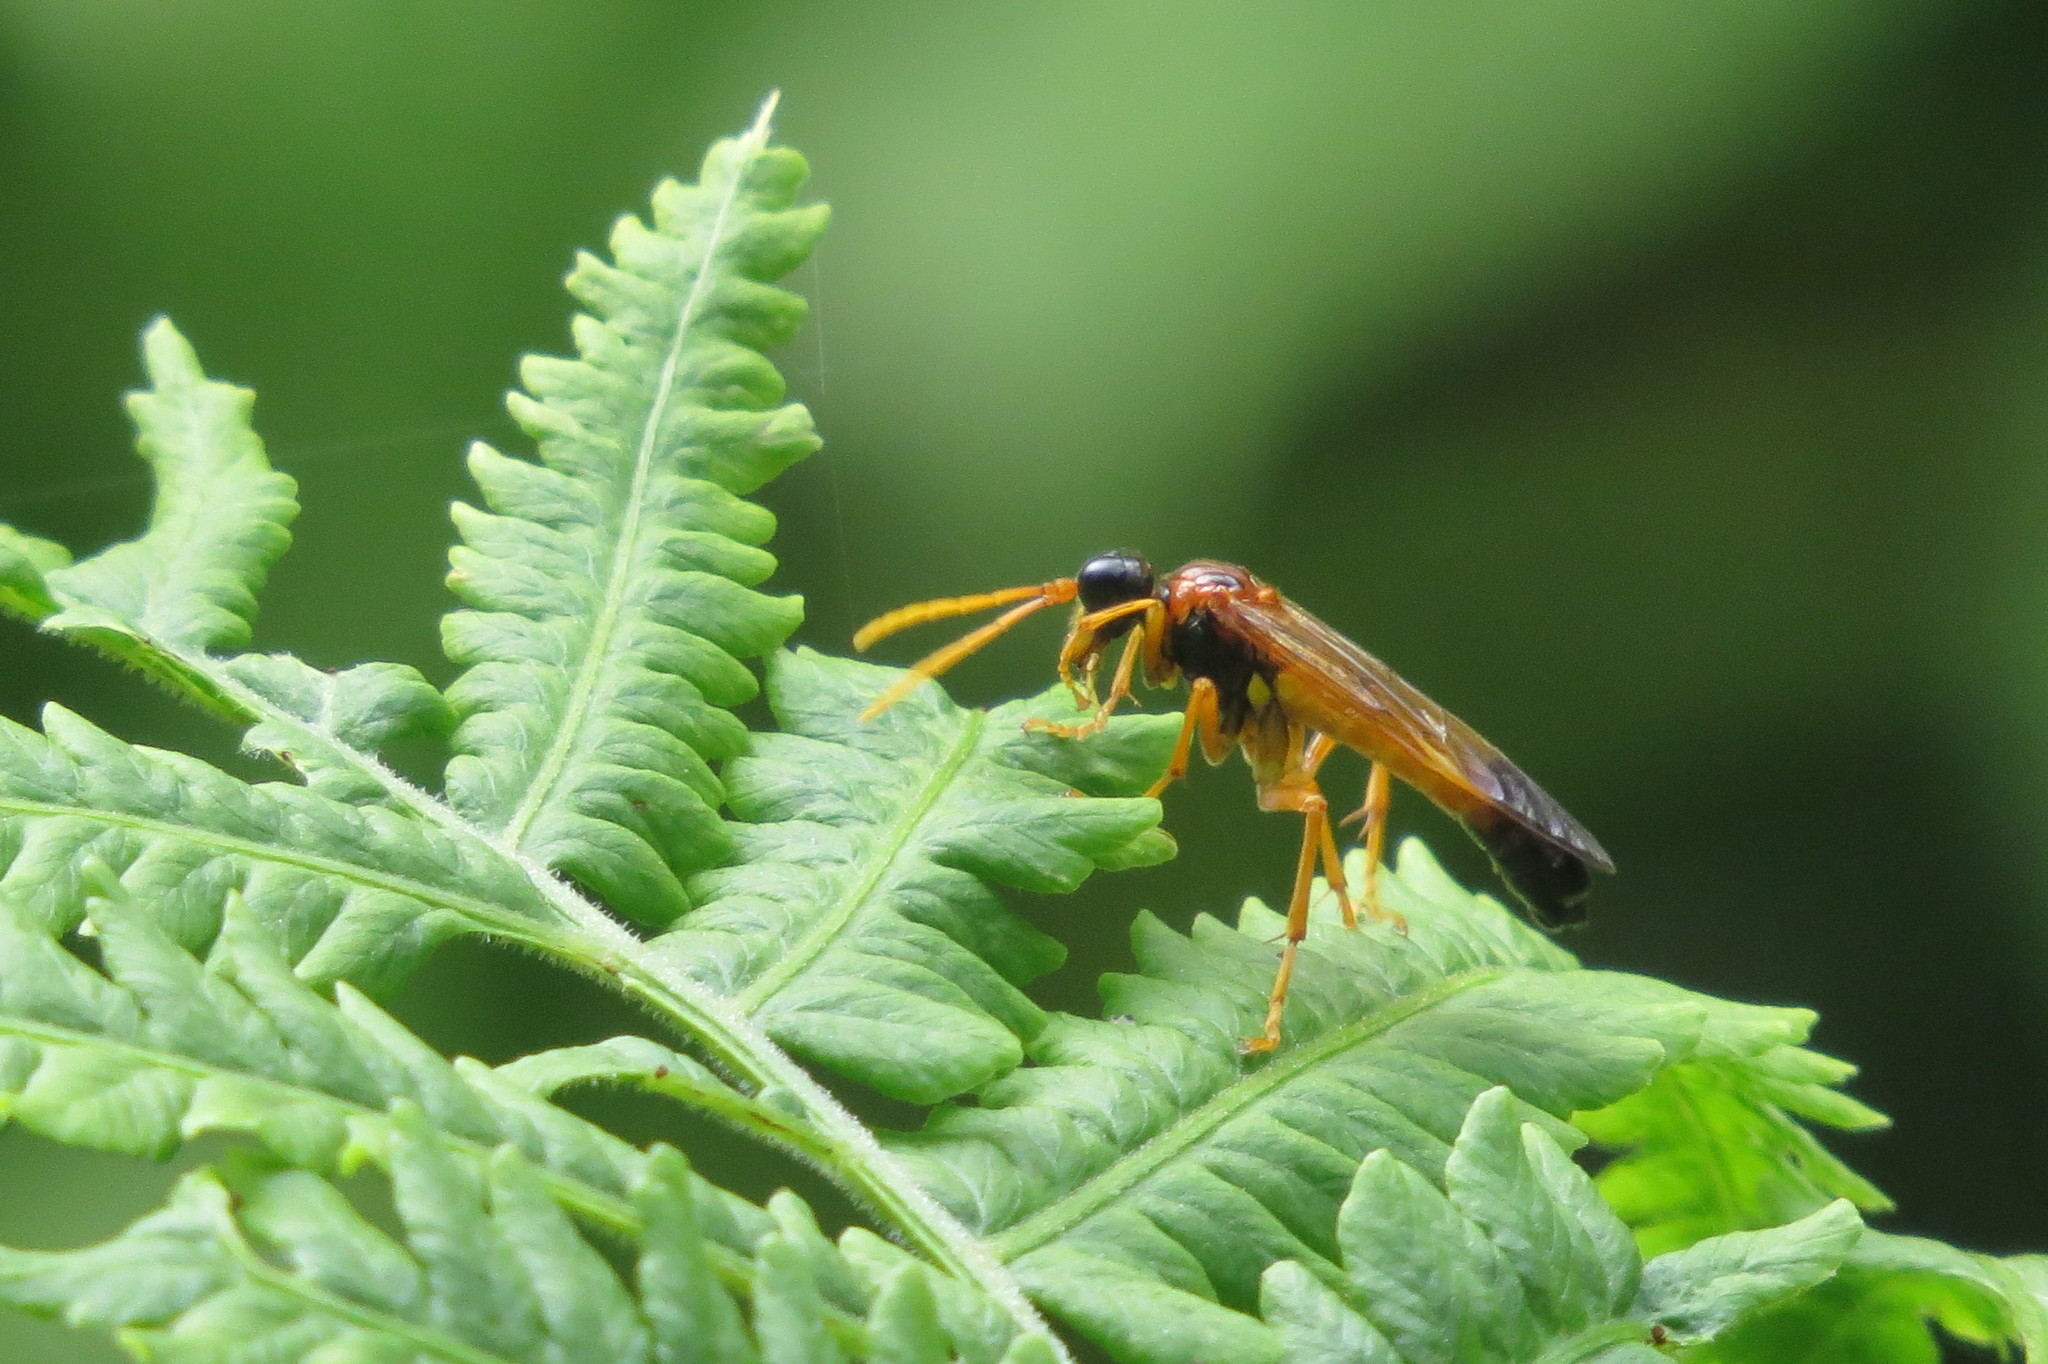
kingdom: Animalia
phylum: Arthropoda
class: Insecta
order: Hymenoptera
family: Tenthredinidae
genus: Tenthredo
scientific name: Tenthredo campestris
